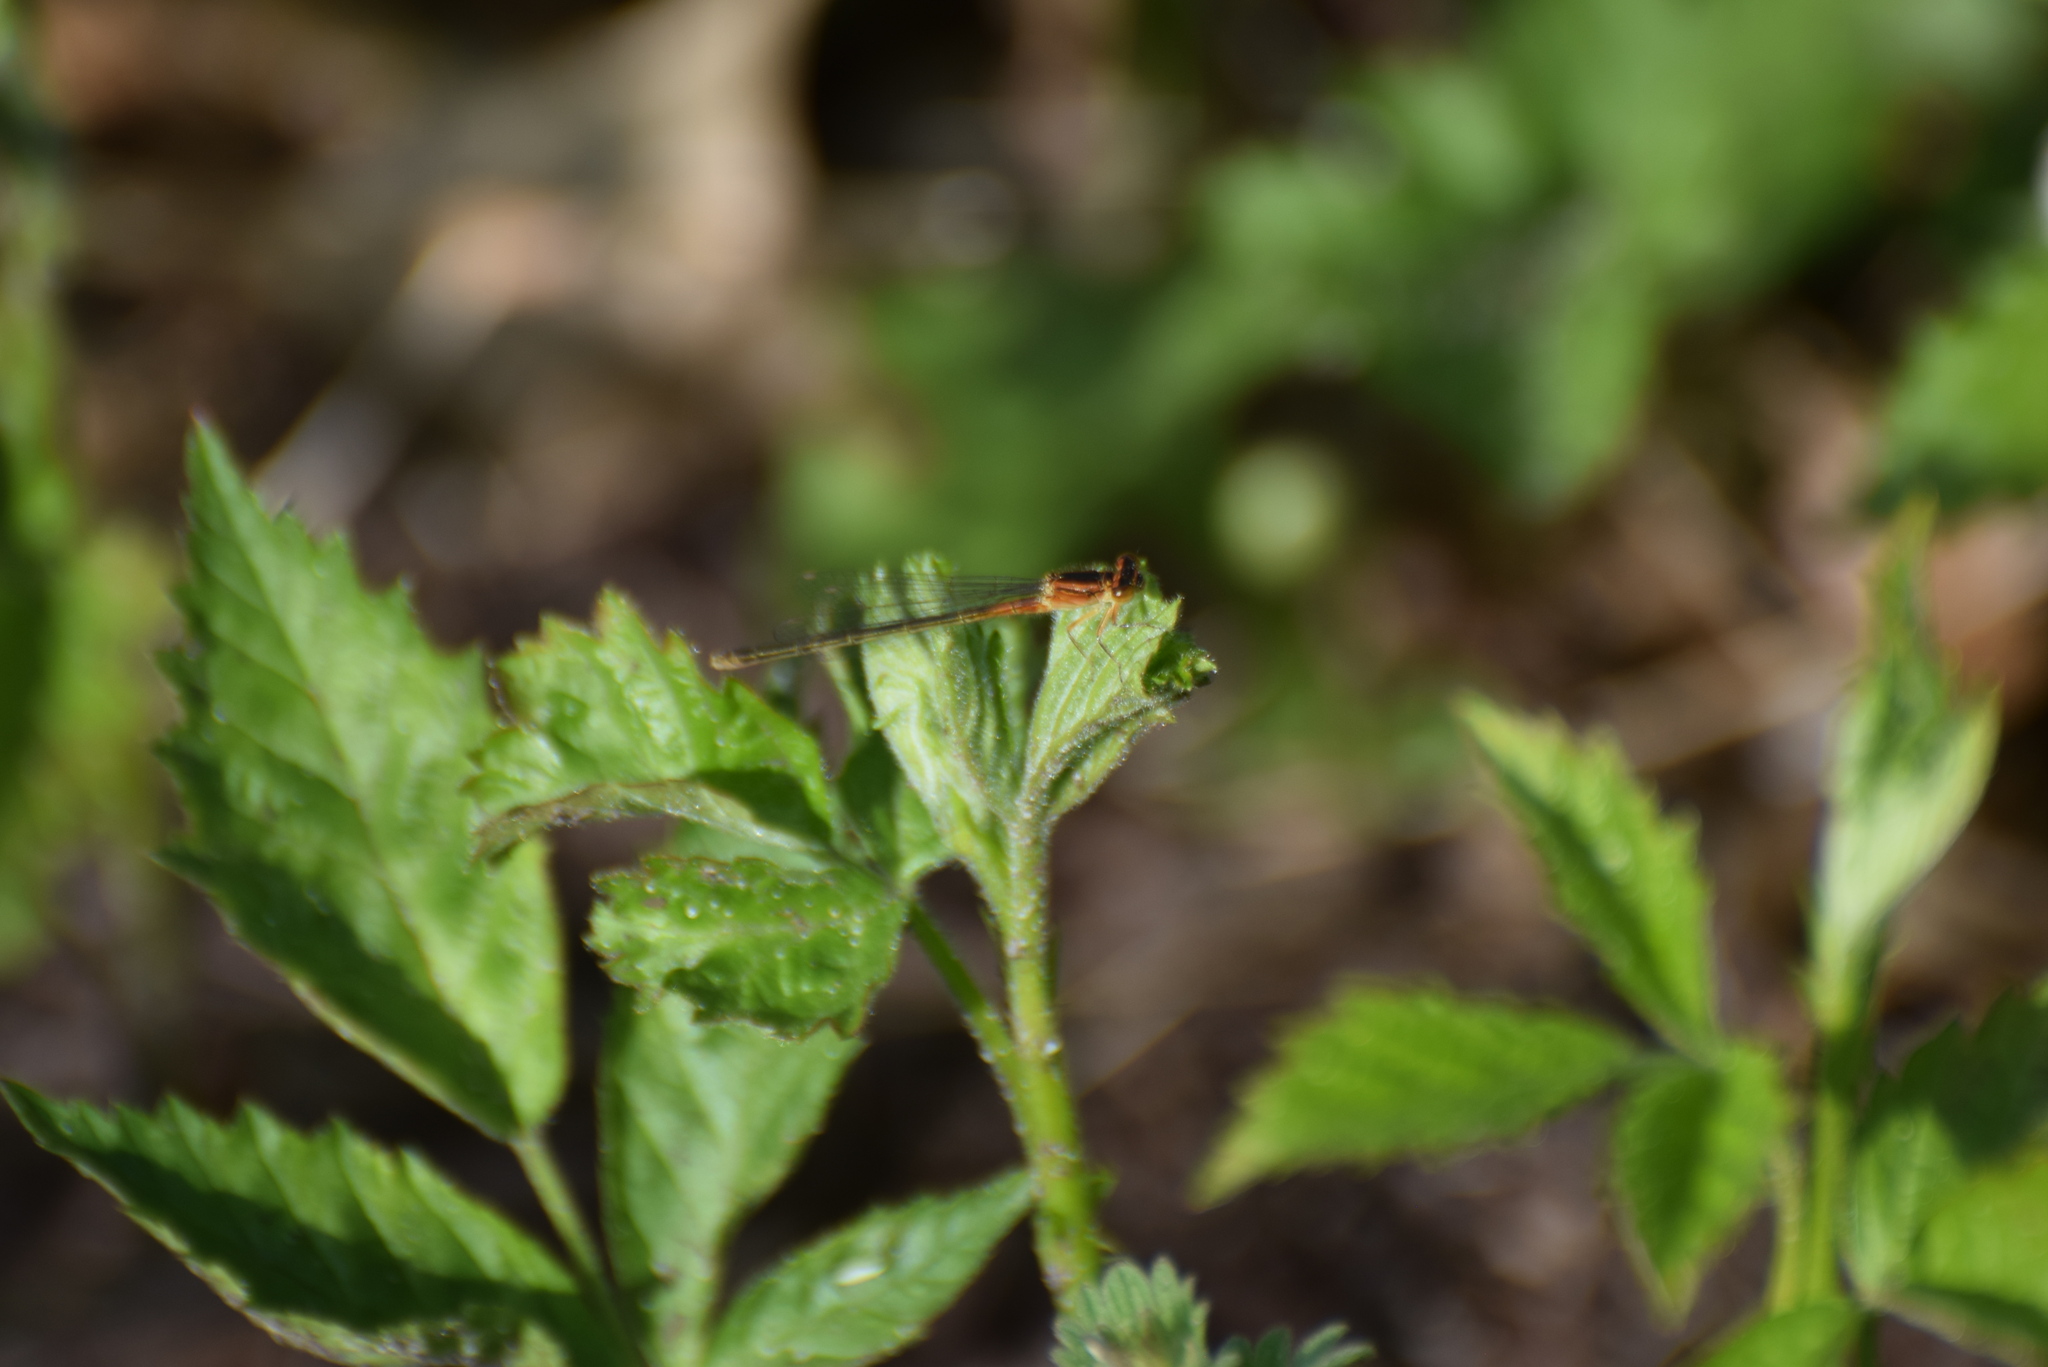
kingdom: Animalia
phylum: Arthropoda
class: Insecta
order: Odonata
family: Coenagrionidae
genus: Ischnura
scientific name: Ischnura verticalis
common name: Eastern forktail
